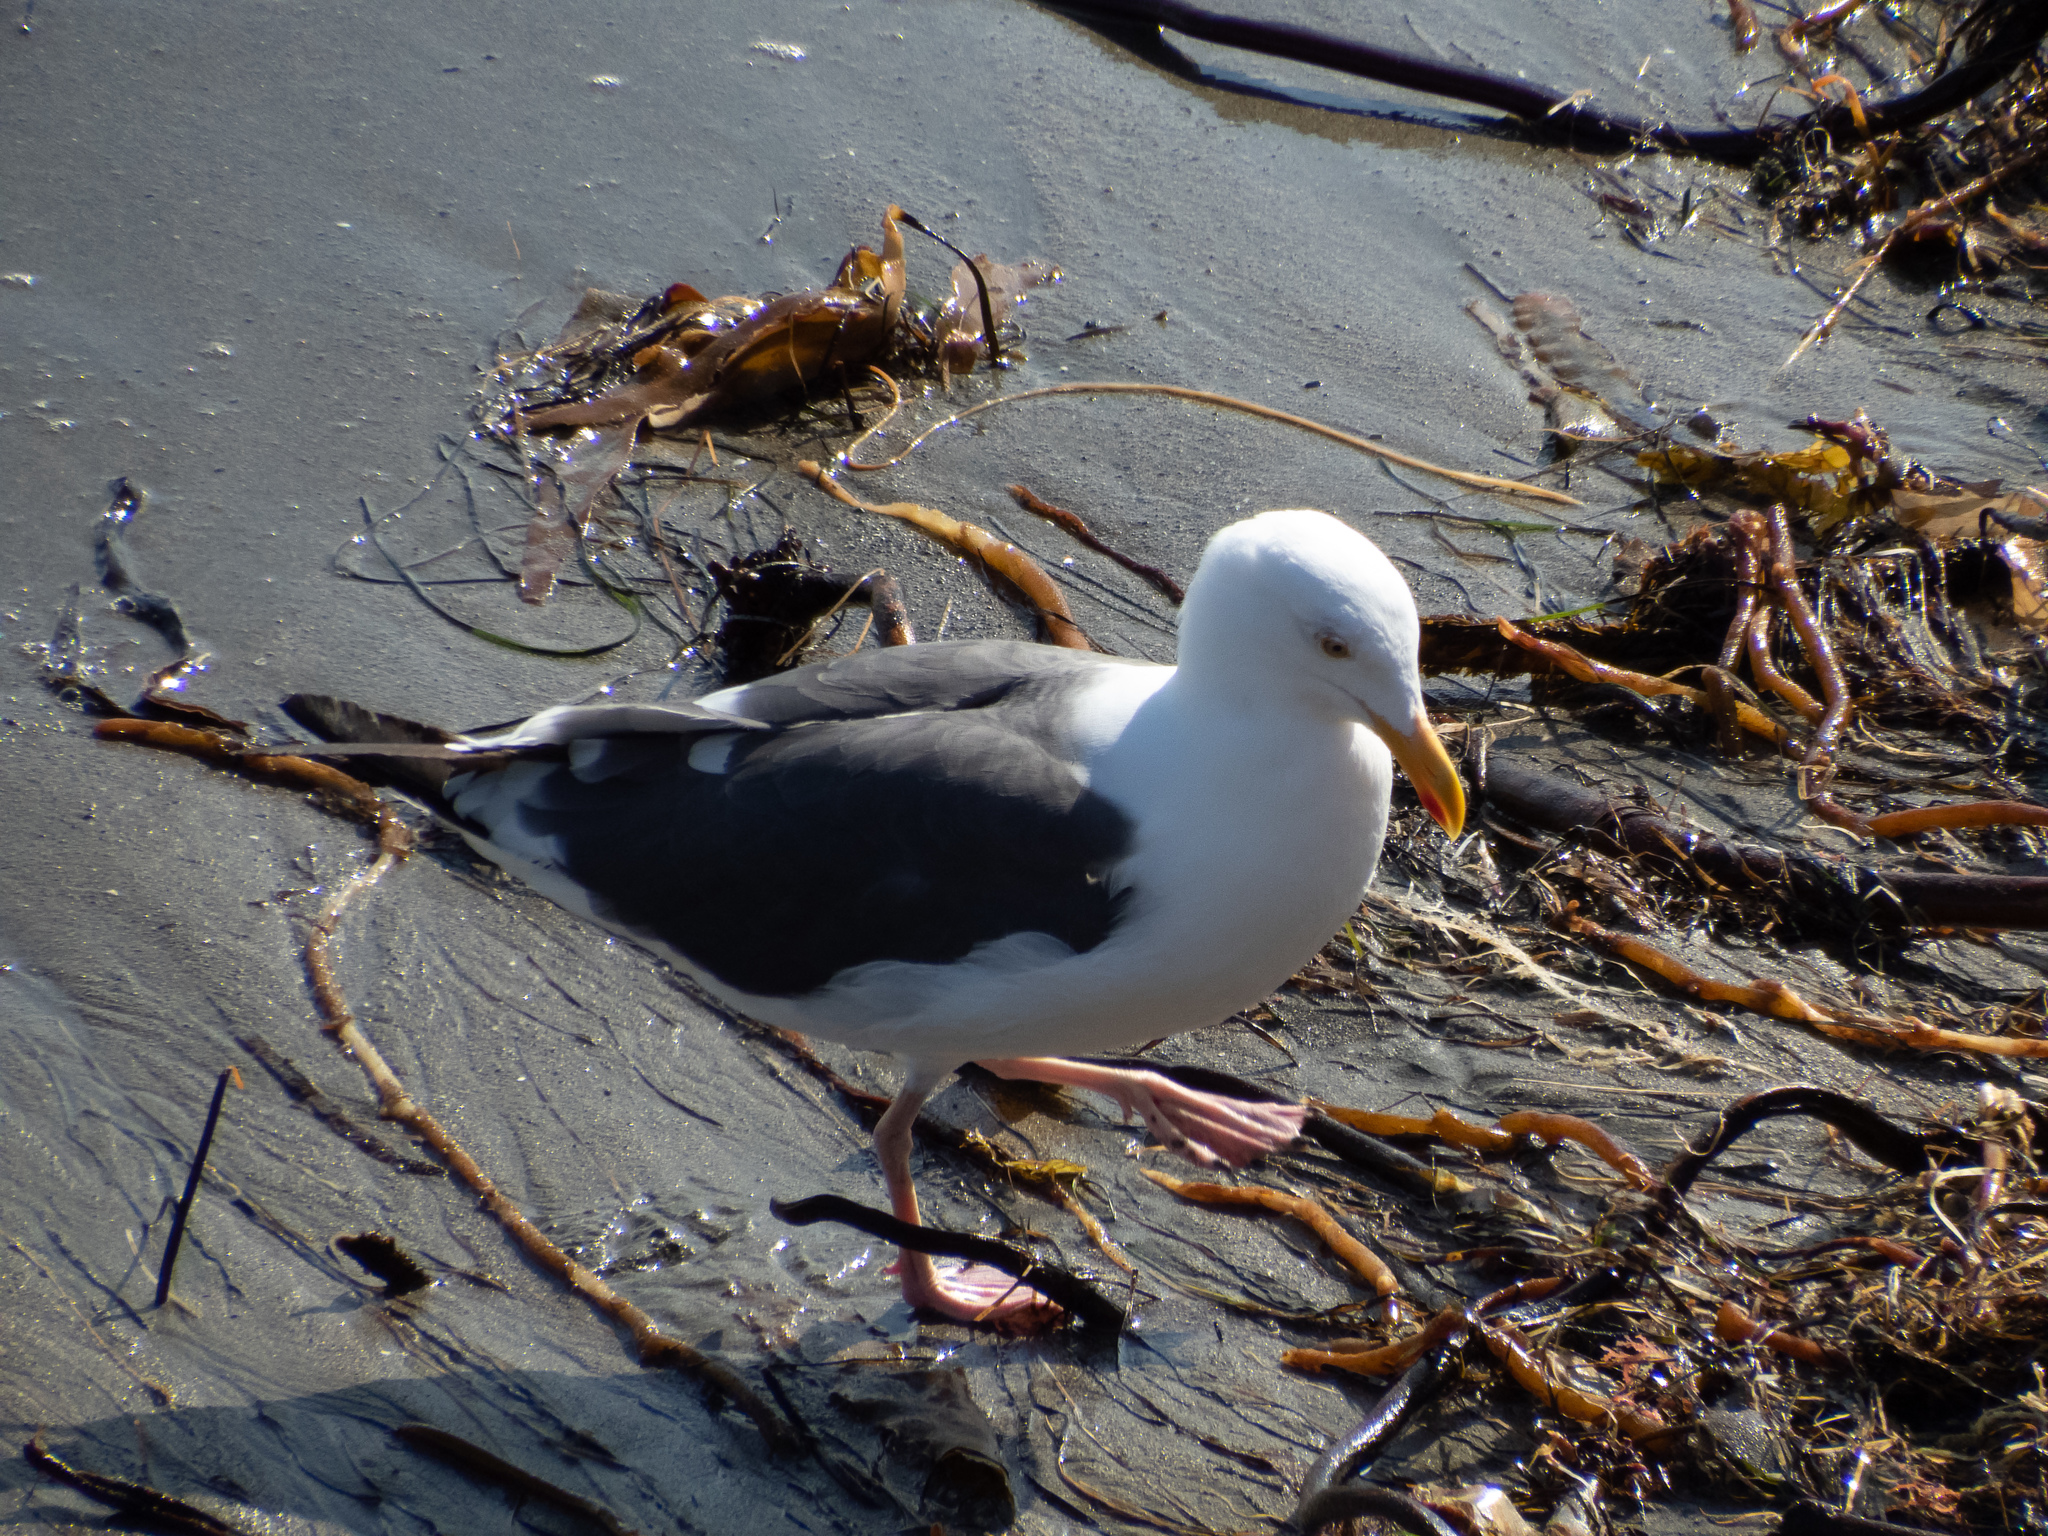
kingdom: Animalia
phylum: Chordata
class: Aves
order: Charadriiformes
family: Laridae
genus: Larus
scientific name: Larus occidentalis
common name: Western gull
